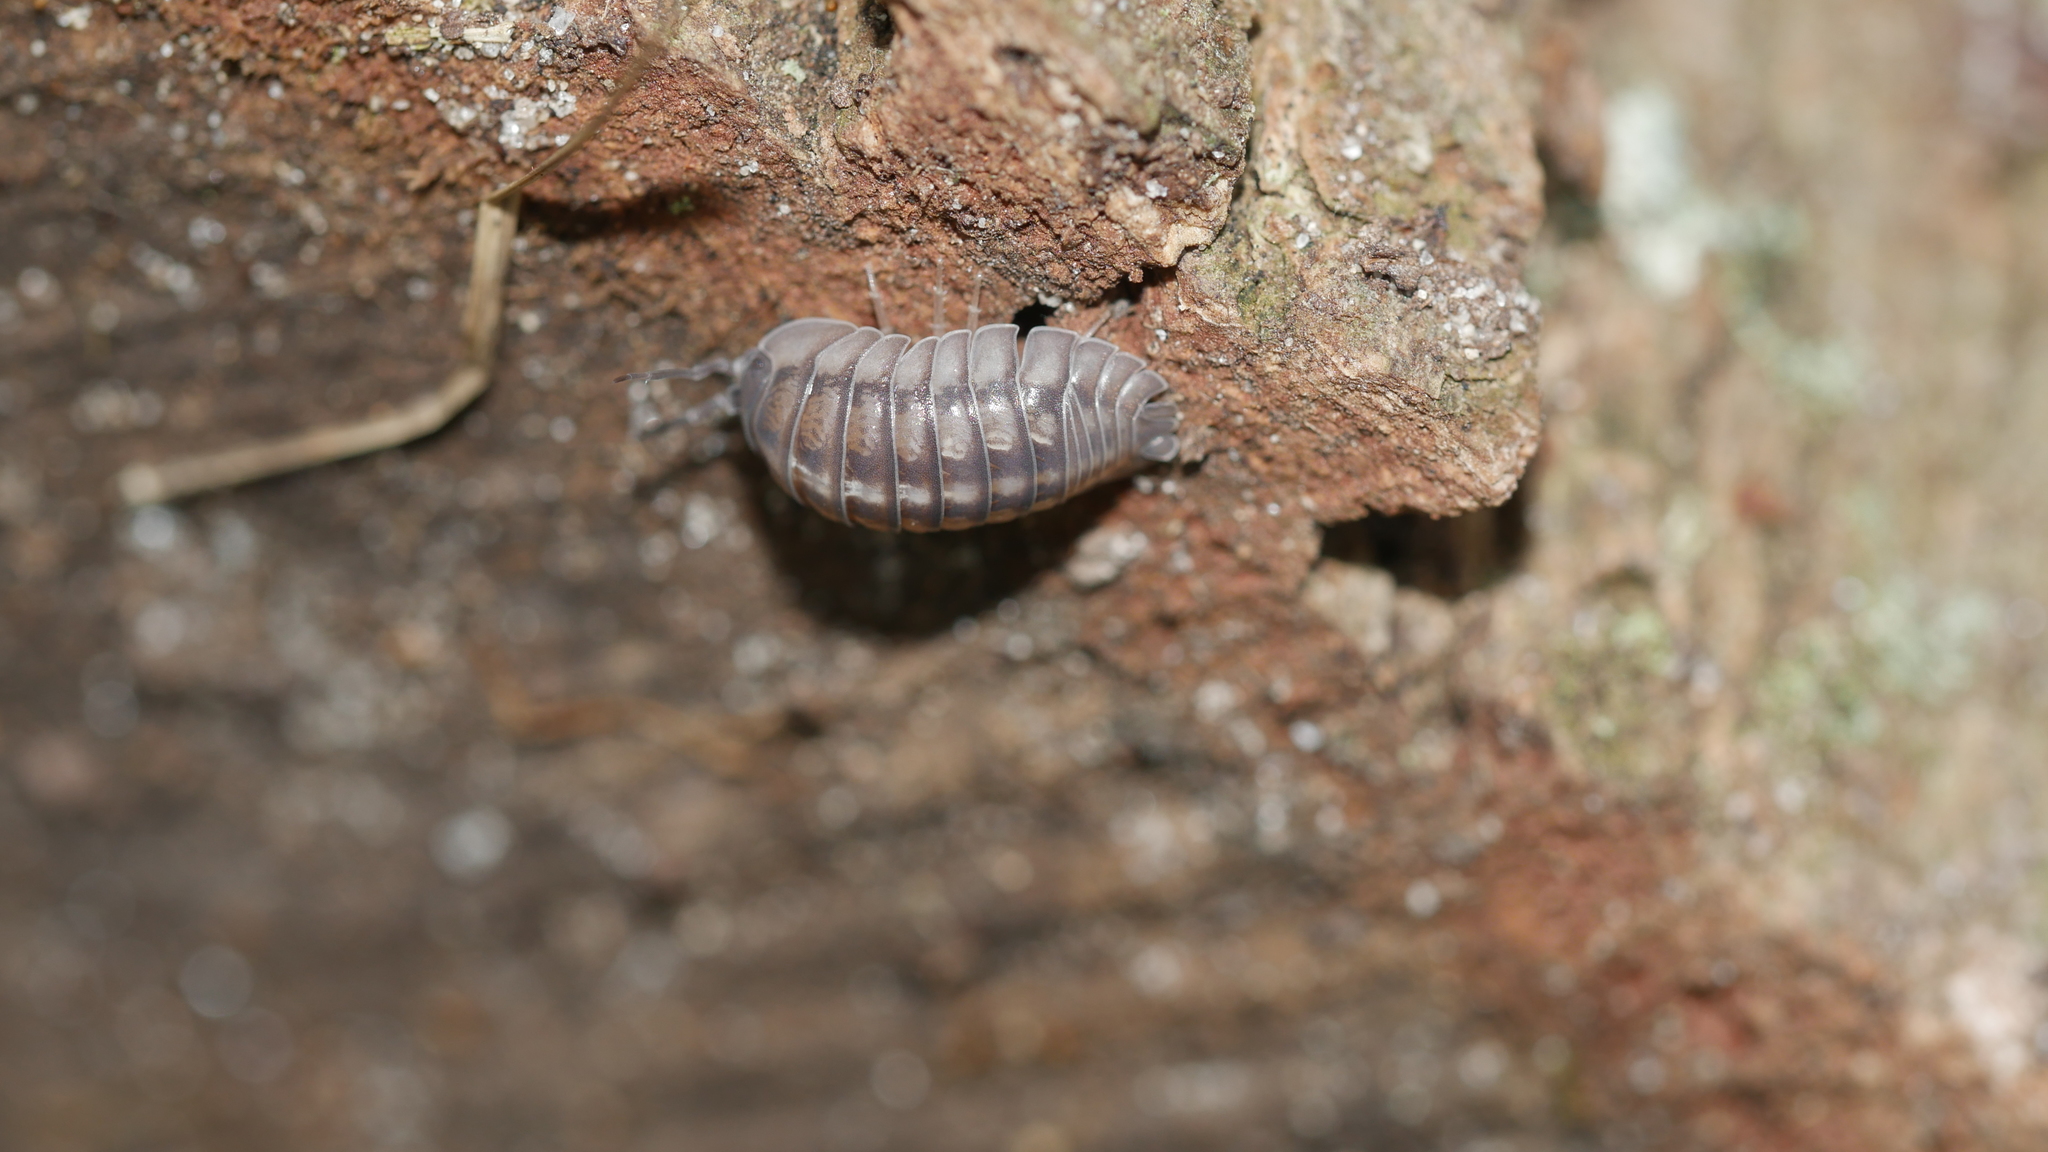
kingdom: Animalia
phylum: Arthropoda
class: Malacostraca
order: Isopoda
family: Armadillidiidae
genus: Armadillidium
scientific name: Armadillidium nasatum
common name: Isopod
